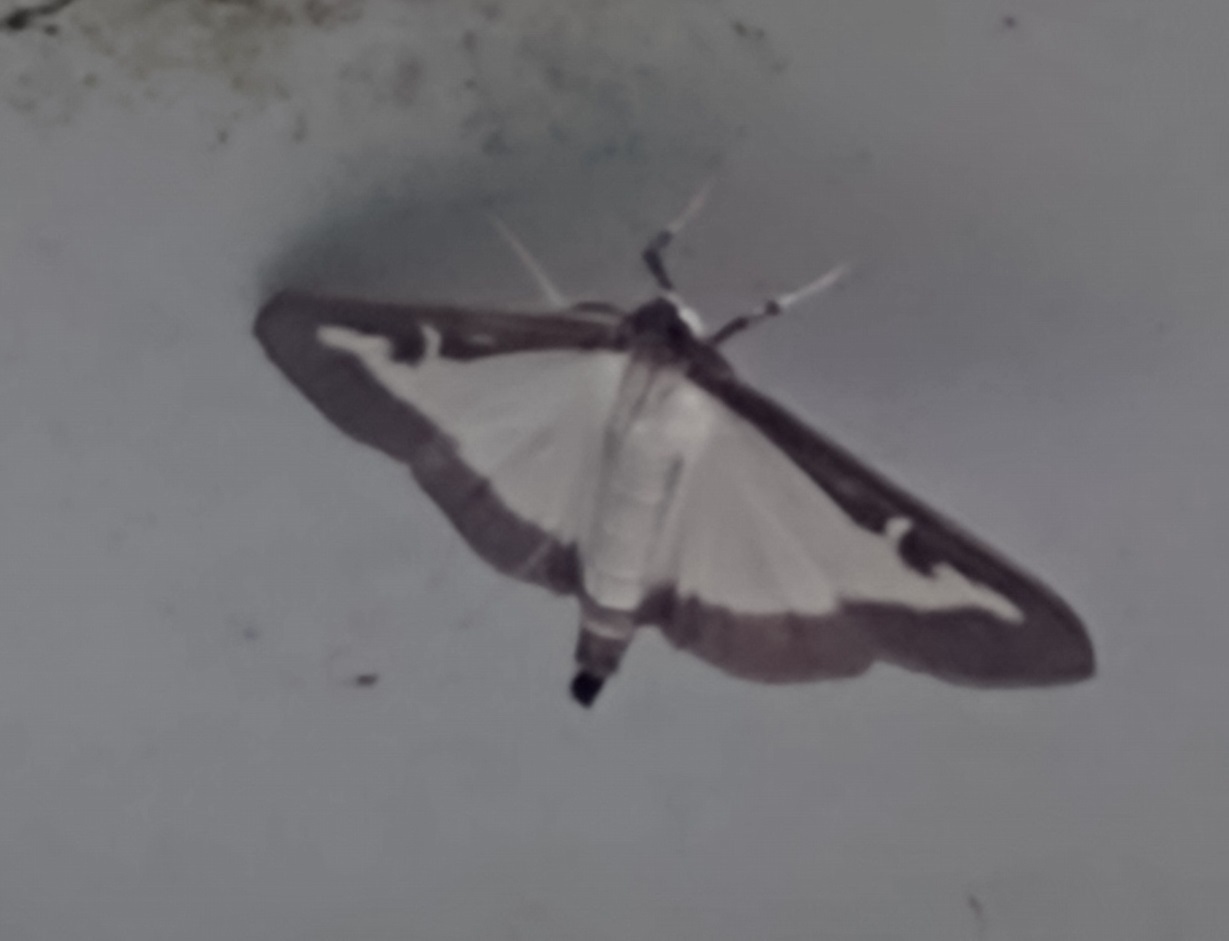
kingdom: Animalia
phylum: Arthropoda
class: Insecta
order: Lepidoptera
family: Crambidae
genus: Cydalima
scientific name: Cydalima perspectalis
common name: Box tree moth
